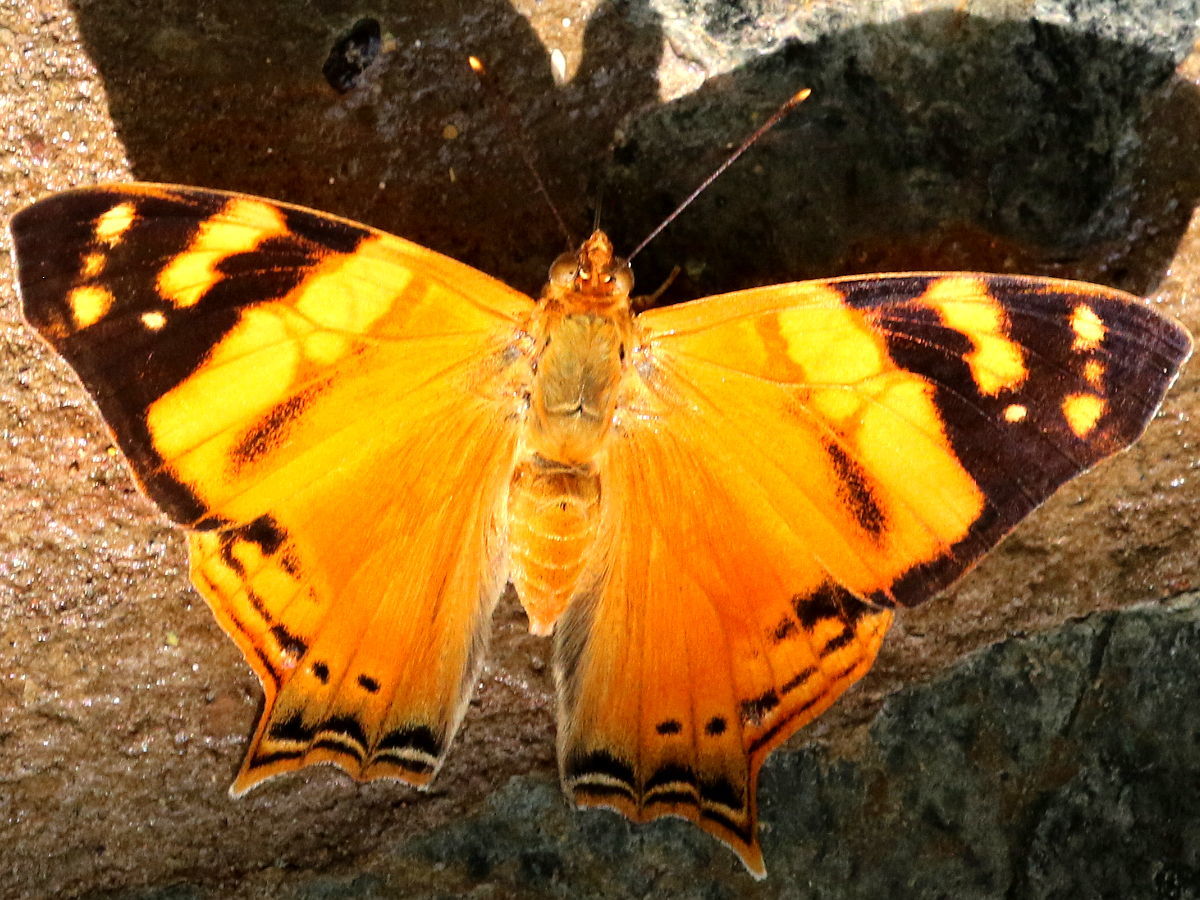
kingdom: Animalia
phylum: Arthropoda
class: Insecta
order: Lepidoptera
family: Nymphalidae
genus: Hypanartia
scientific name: Hypanartia lethe
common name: Orange mapwing
